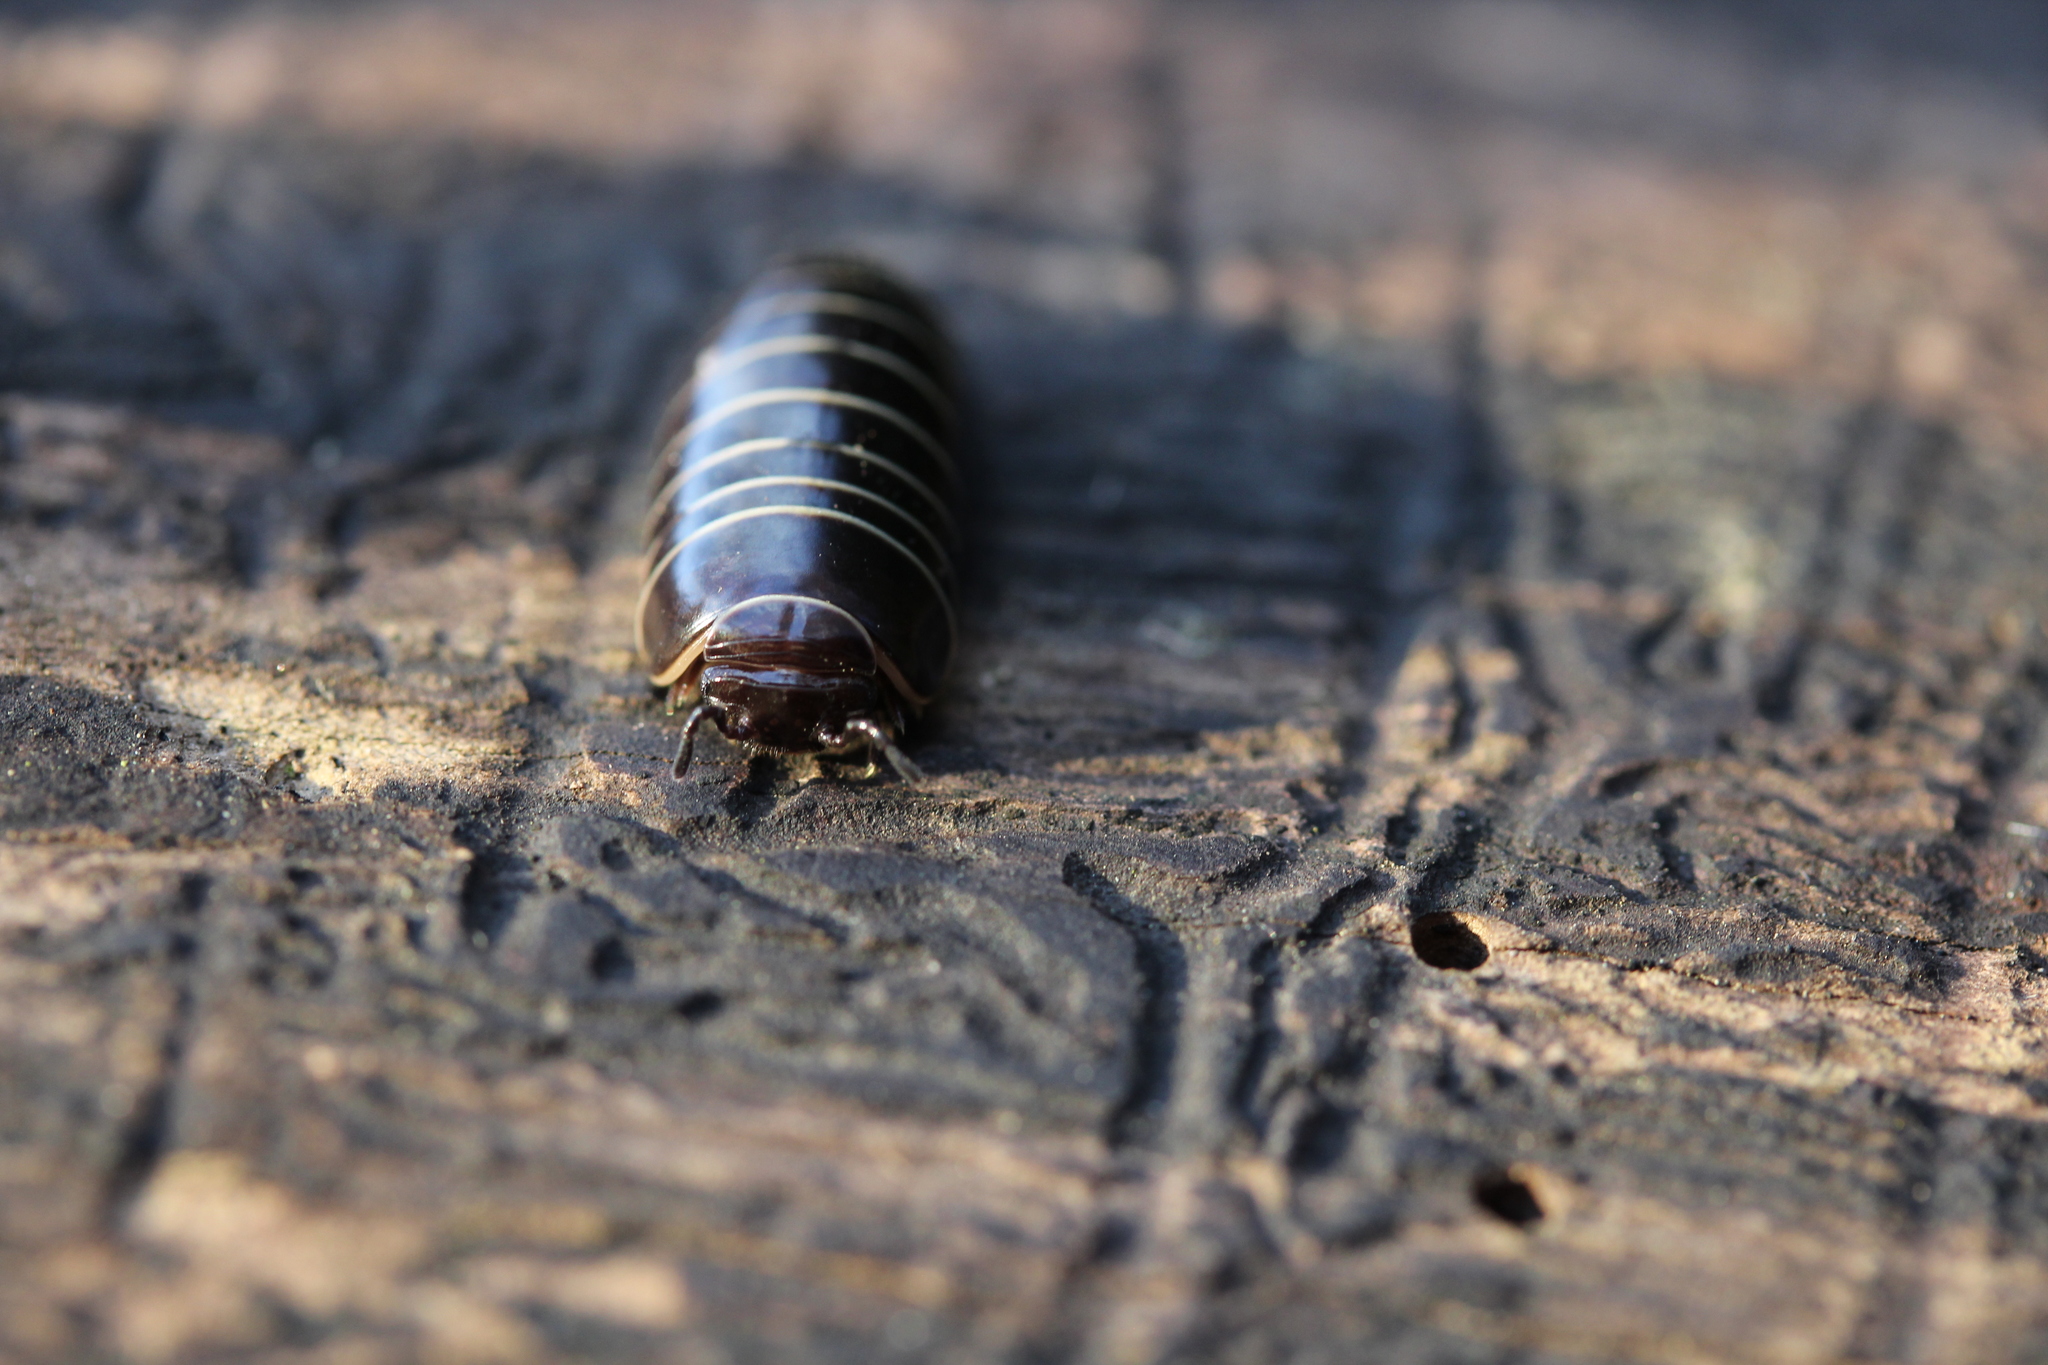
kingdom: Animalia
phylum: Arthropoda
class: Diplopoda
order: Glomerida
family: Glomeridae
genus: Glomeris
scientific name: Glomeris marginata
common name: Bordered pill millipede
